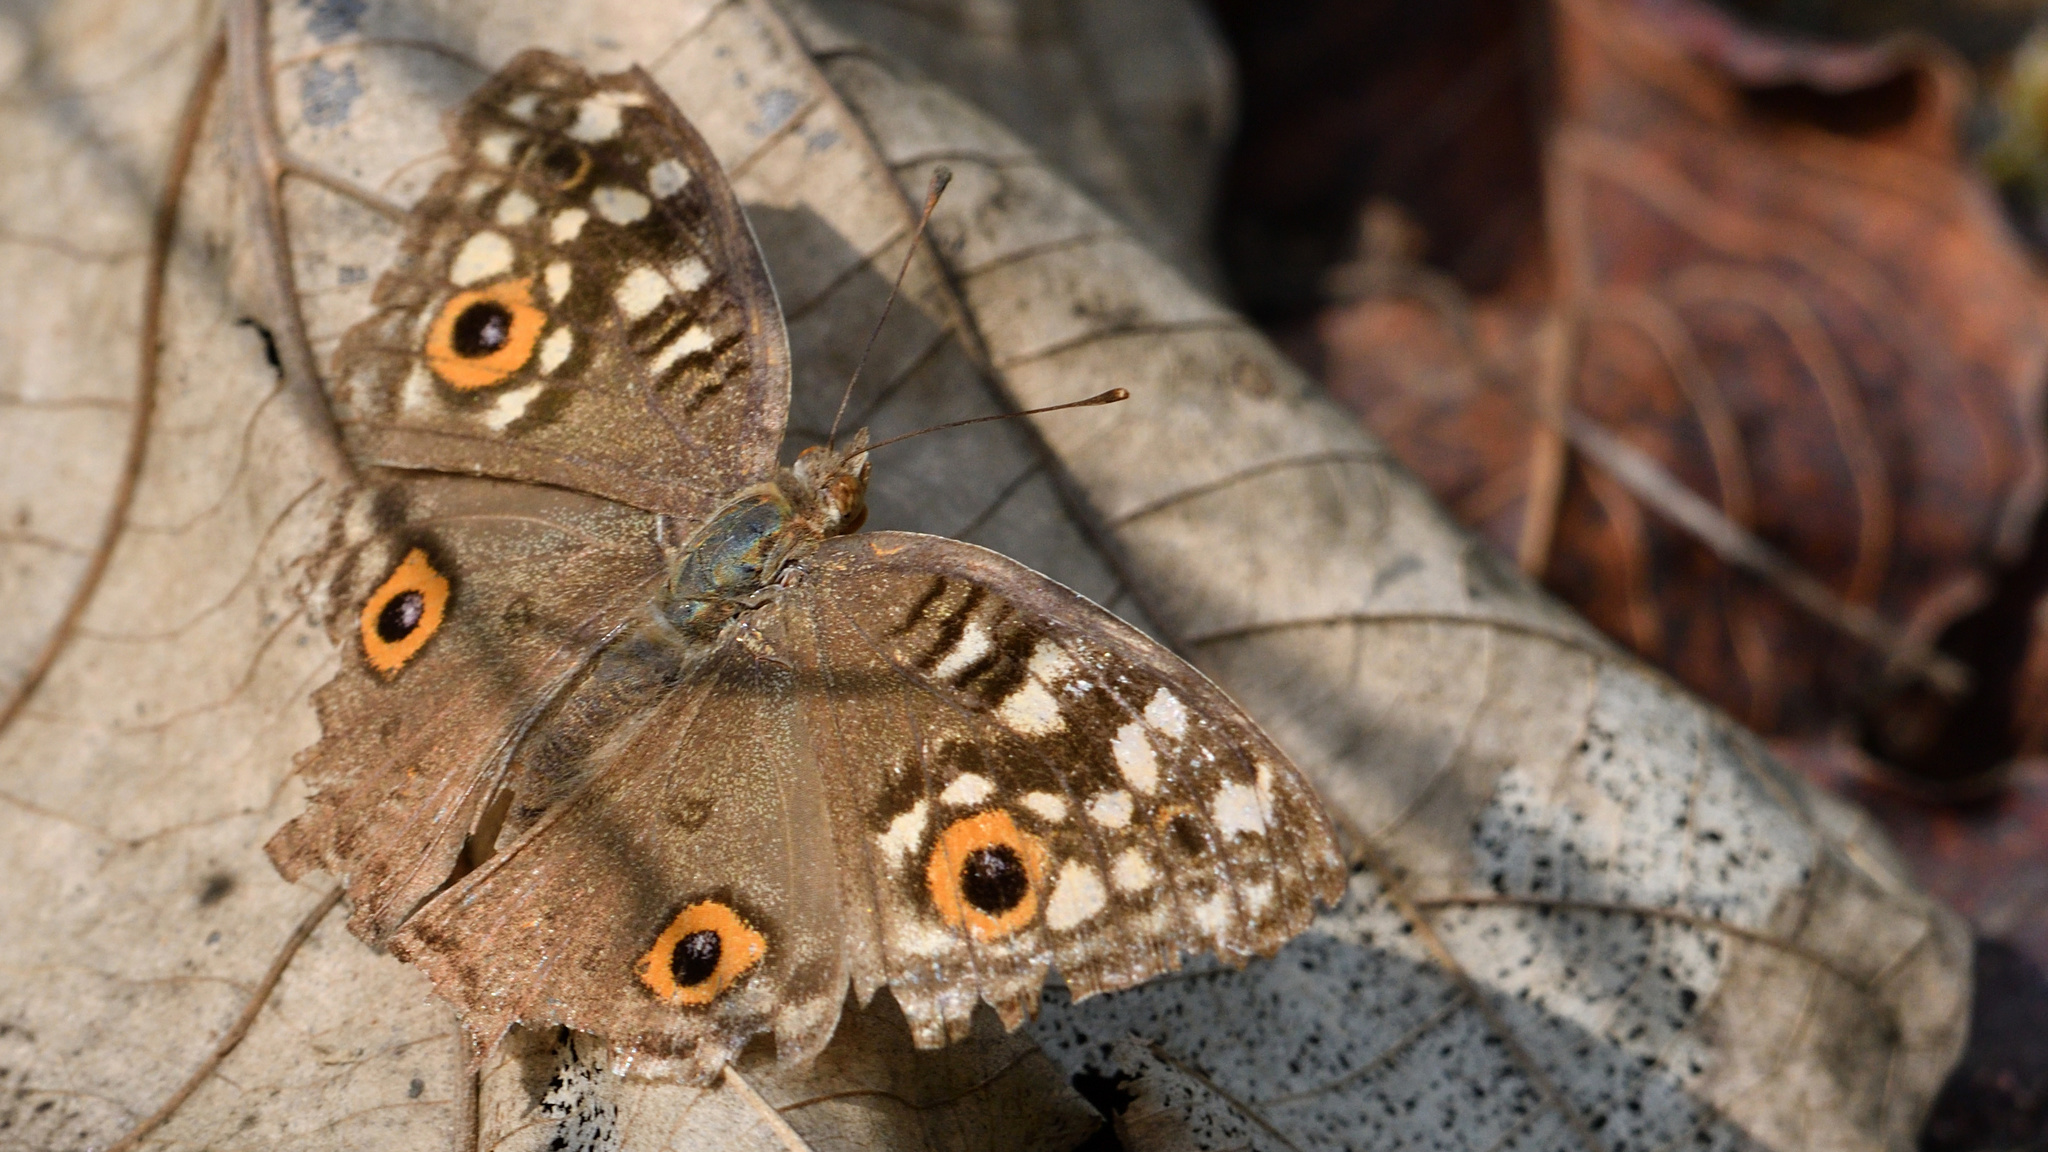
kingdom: Animalia
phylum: Arthropoda
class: Insecta
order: Lepidoptera
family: Nymphalidae
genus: Junonia
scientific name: Junonia lemonias
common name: Lemon pansy
